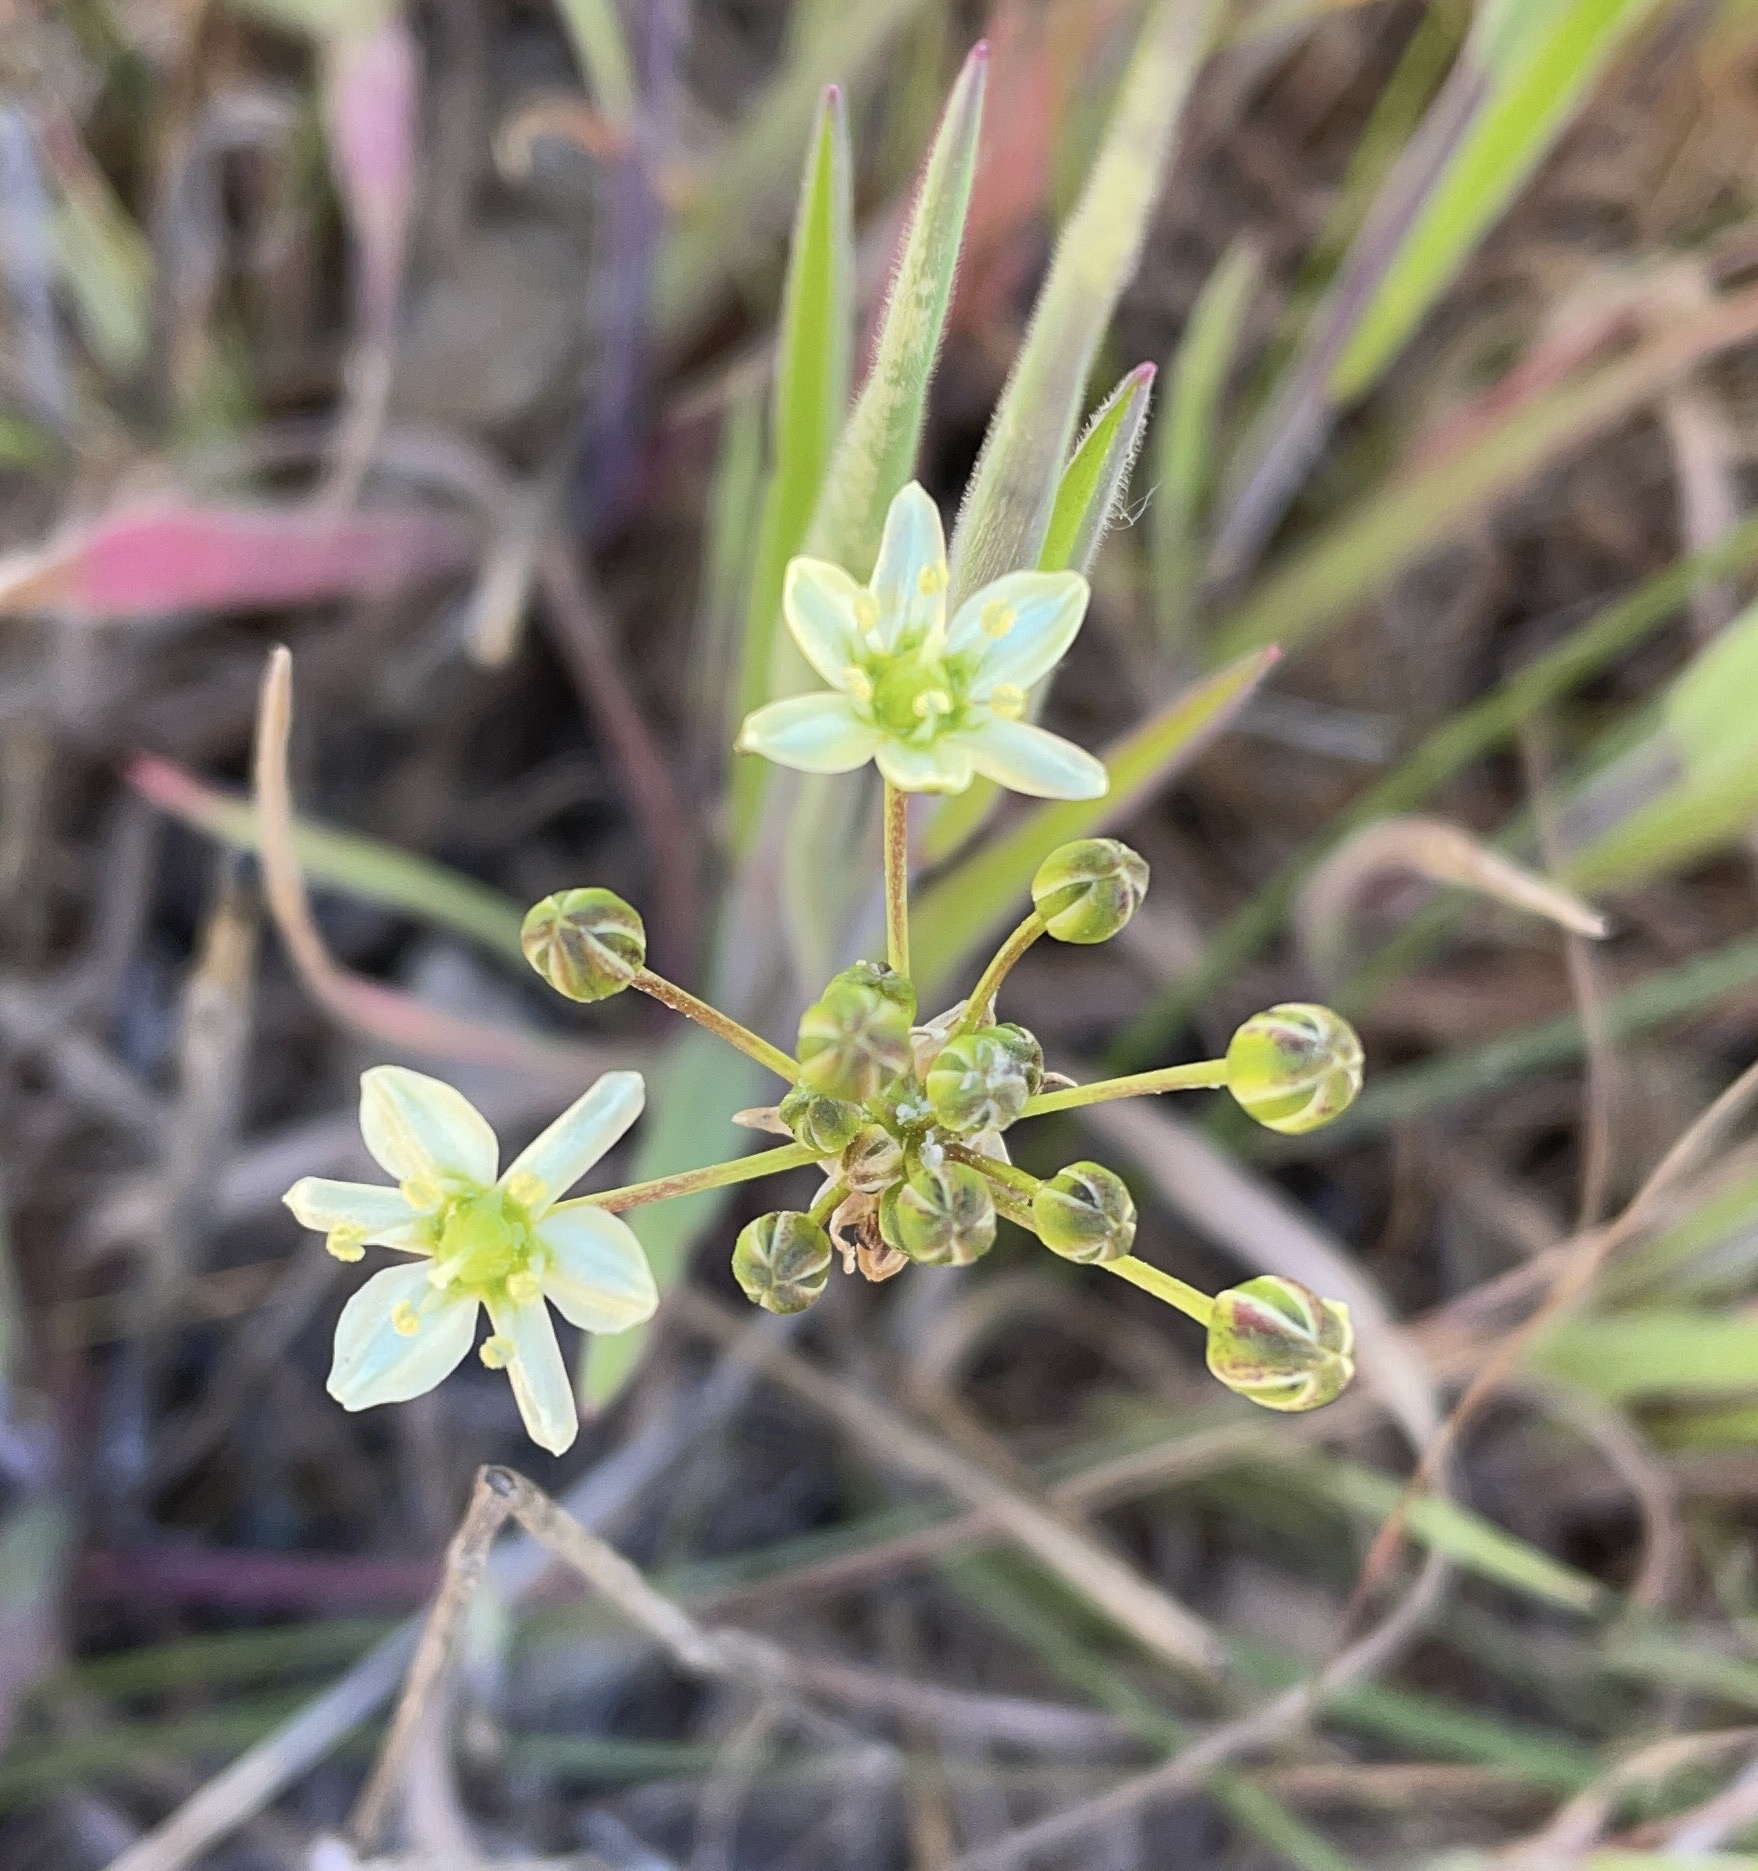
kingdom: Plantae
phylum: Tracheophyta
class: Liliopsida
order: Asparagales
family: Asparagaceae
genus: Muilla
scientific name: Muilla maritima
